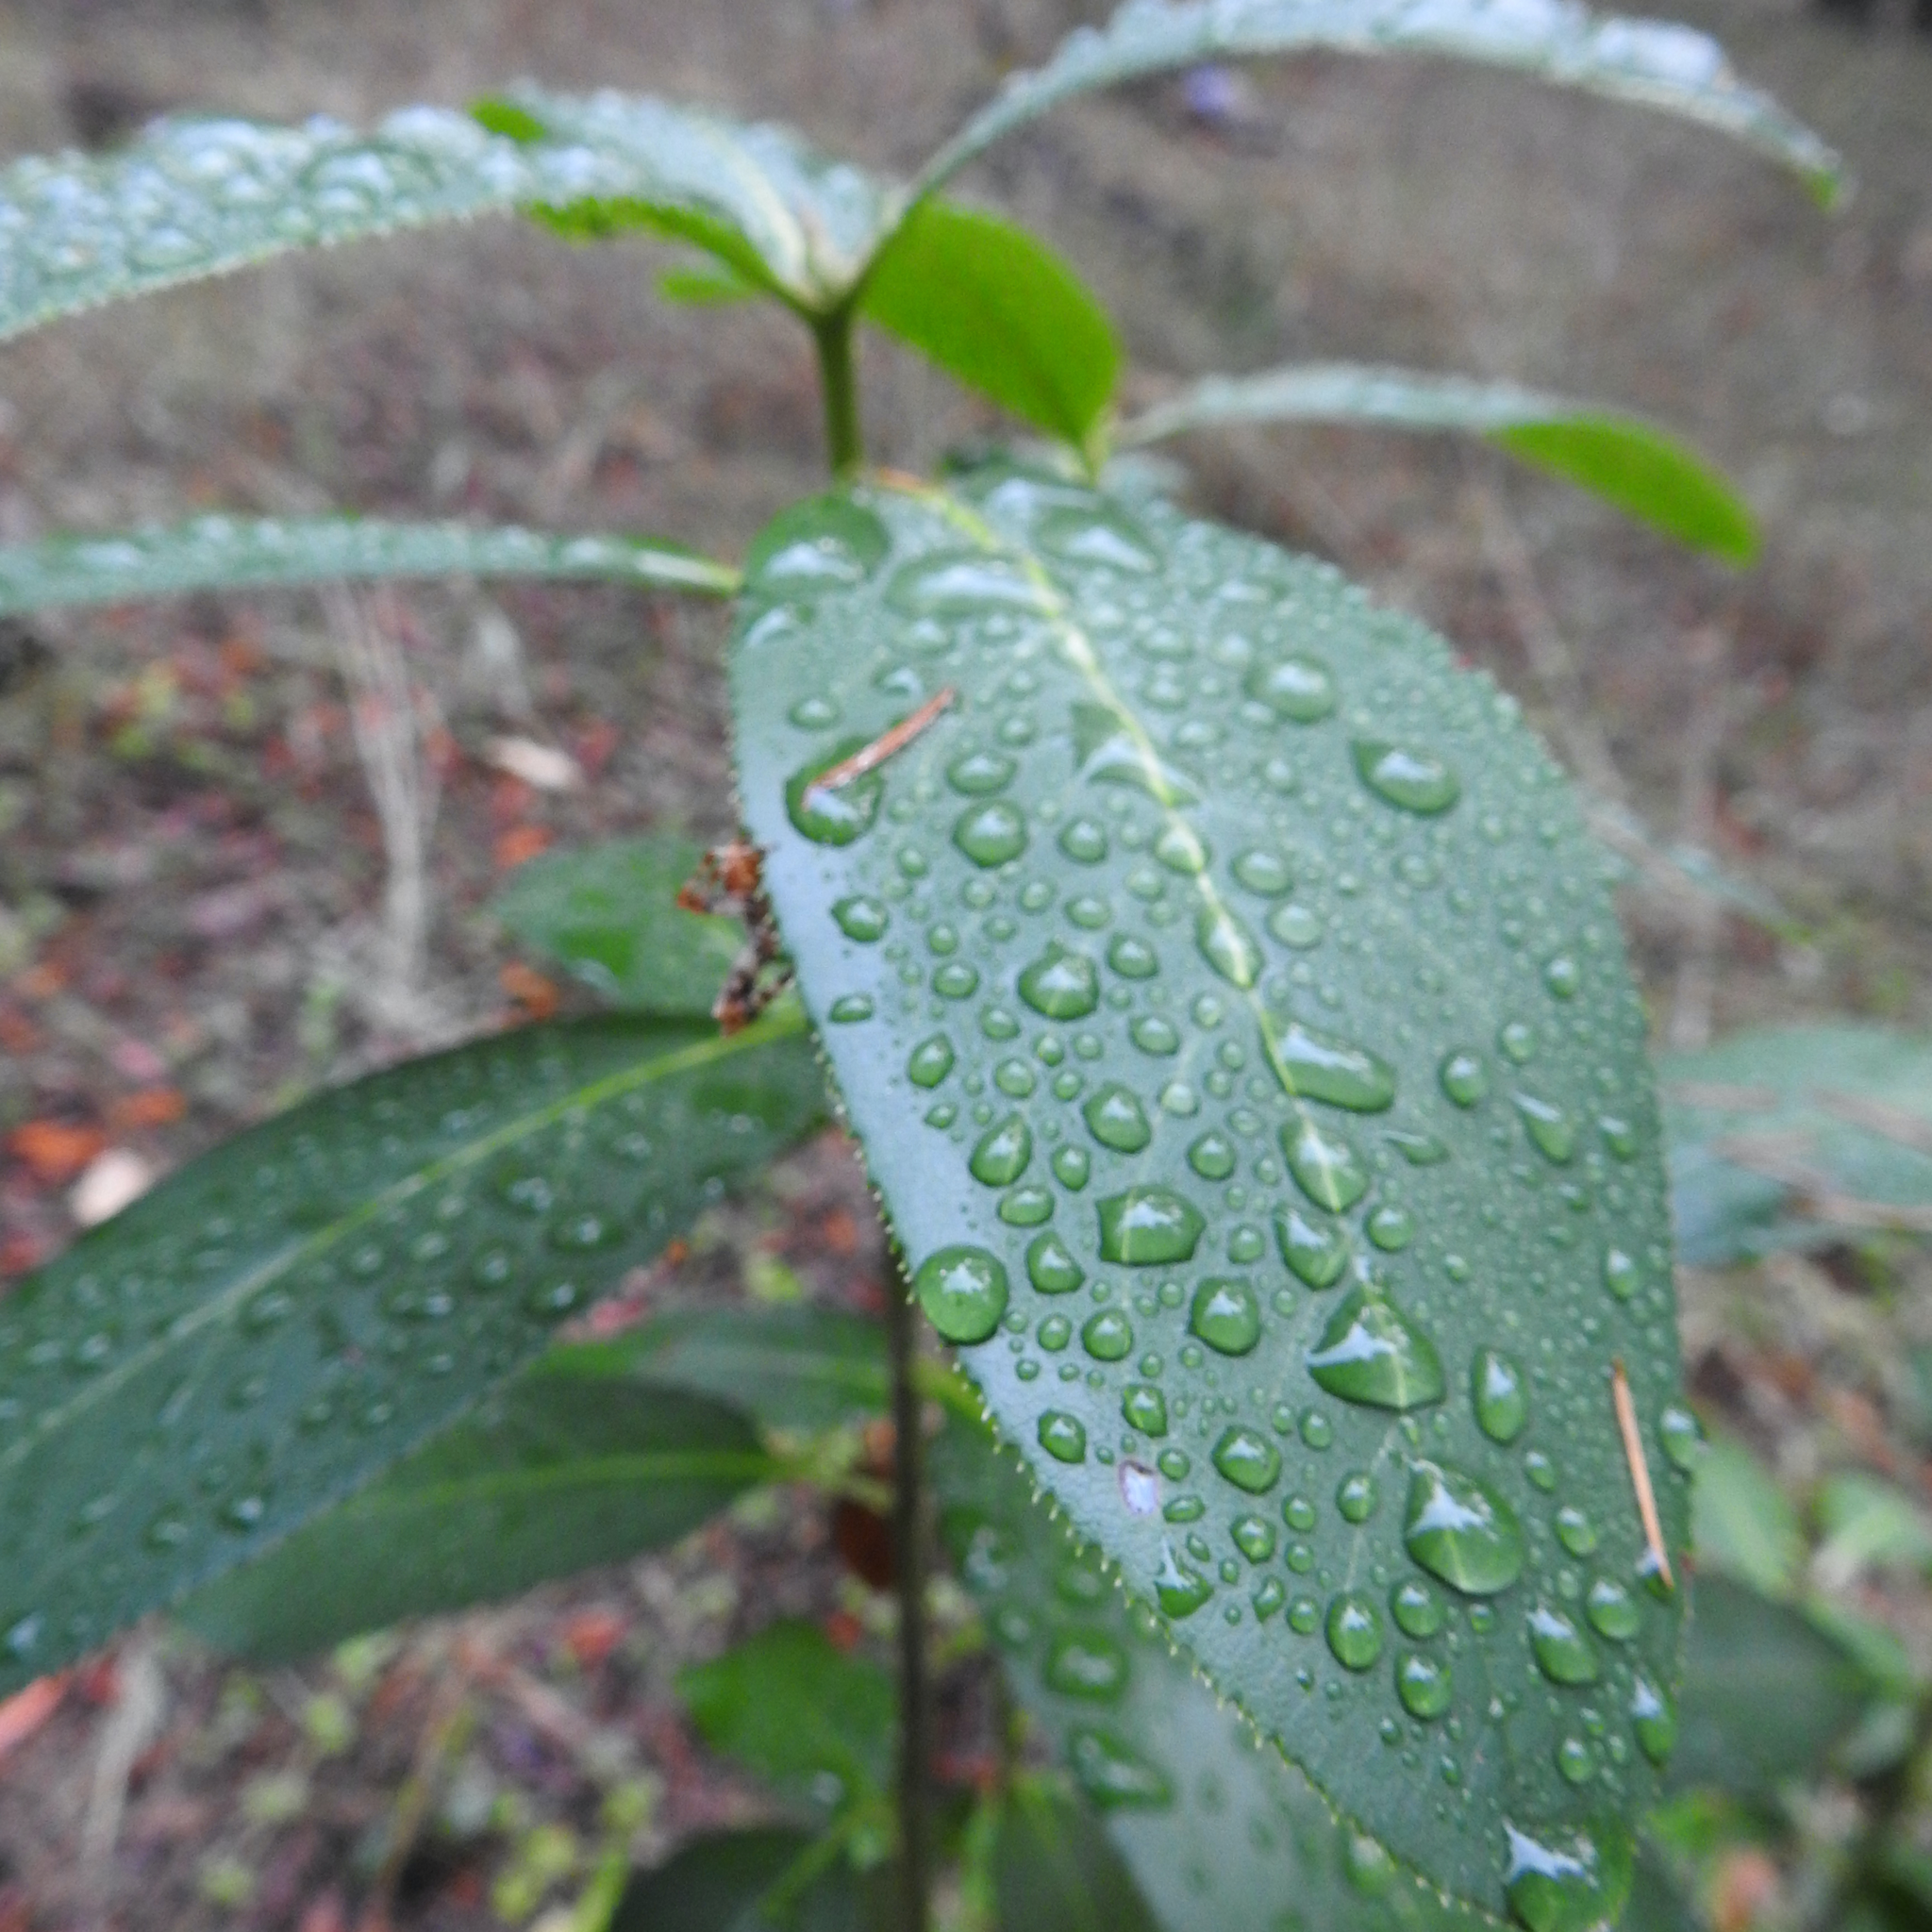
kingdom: Plantae
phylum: Tracheophyta
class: Magnoliopsida
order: Ericales
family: Ericaceae
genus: Arbutus
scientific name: Arbutus menziesii
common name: Pacific madrone
